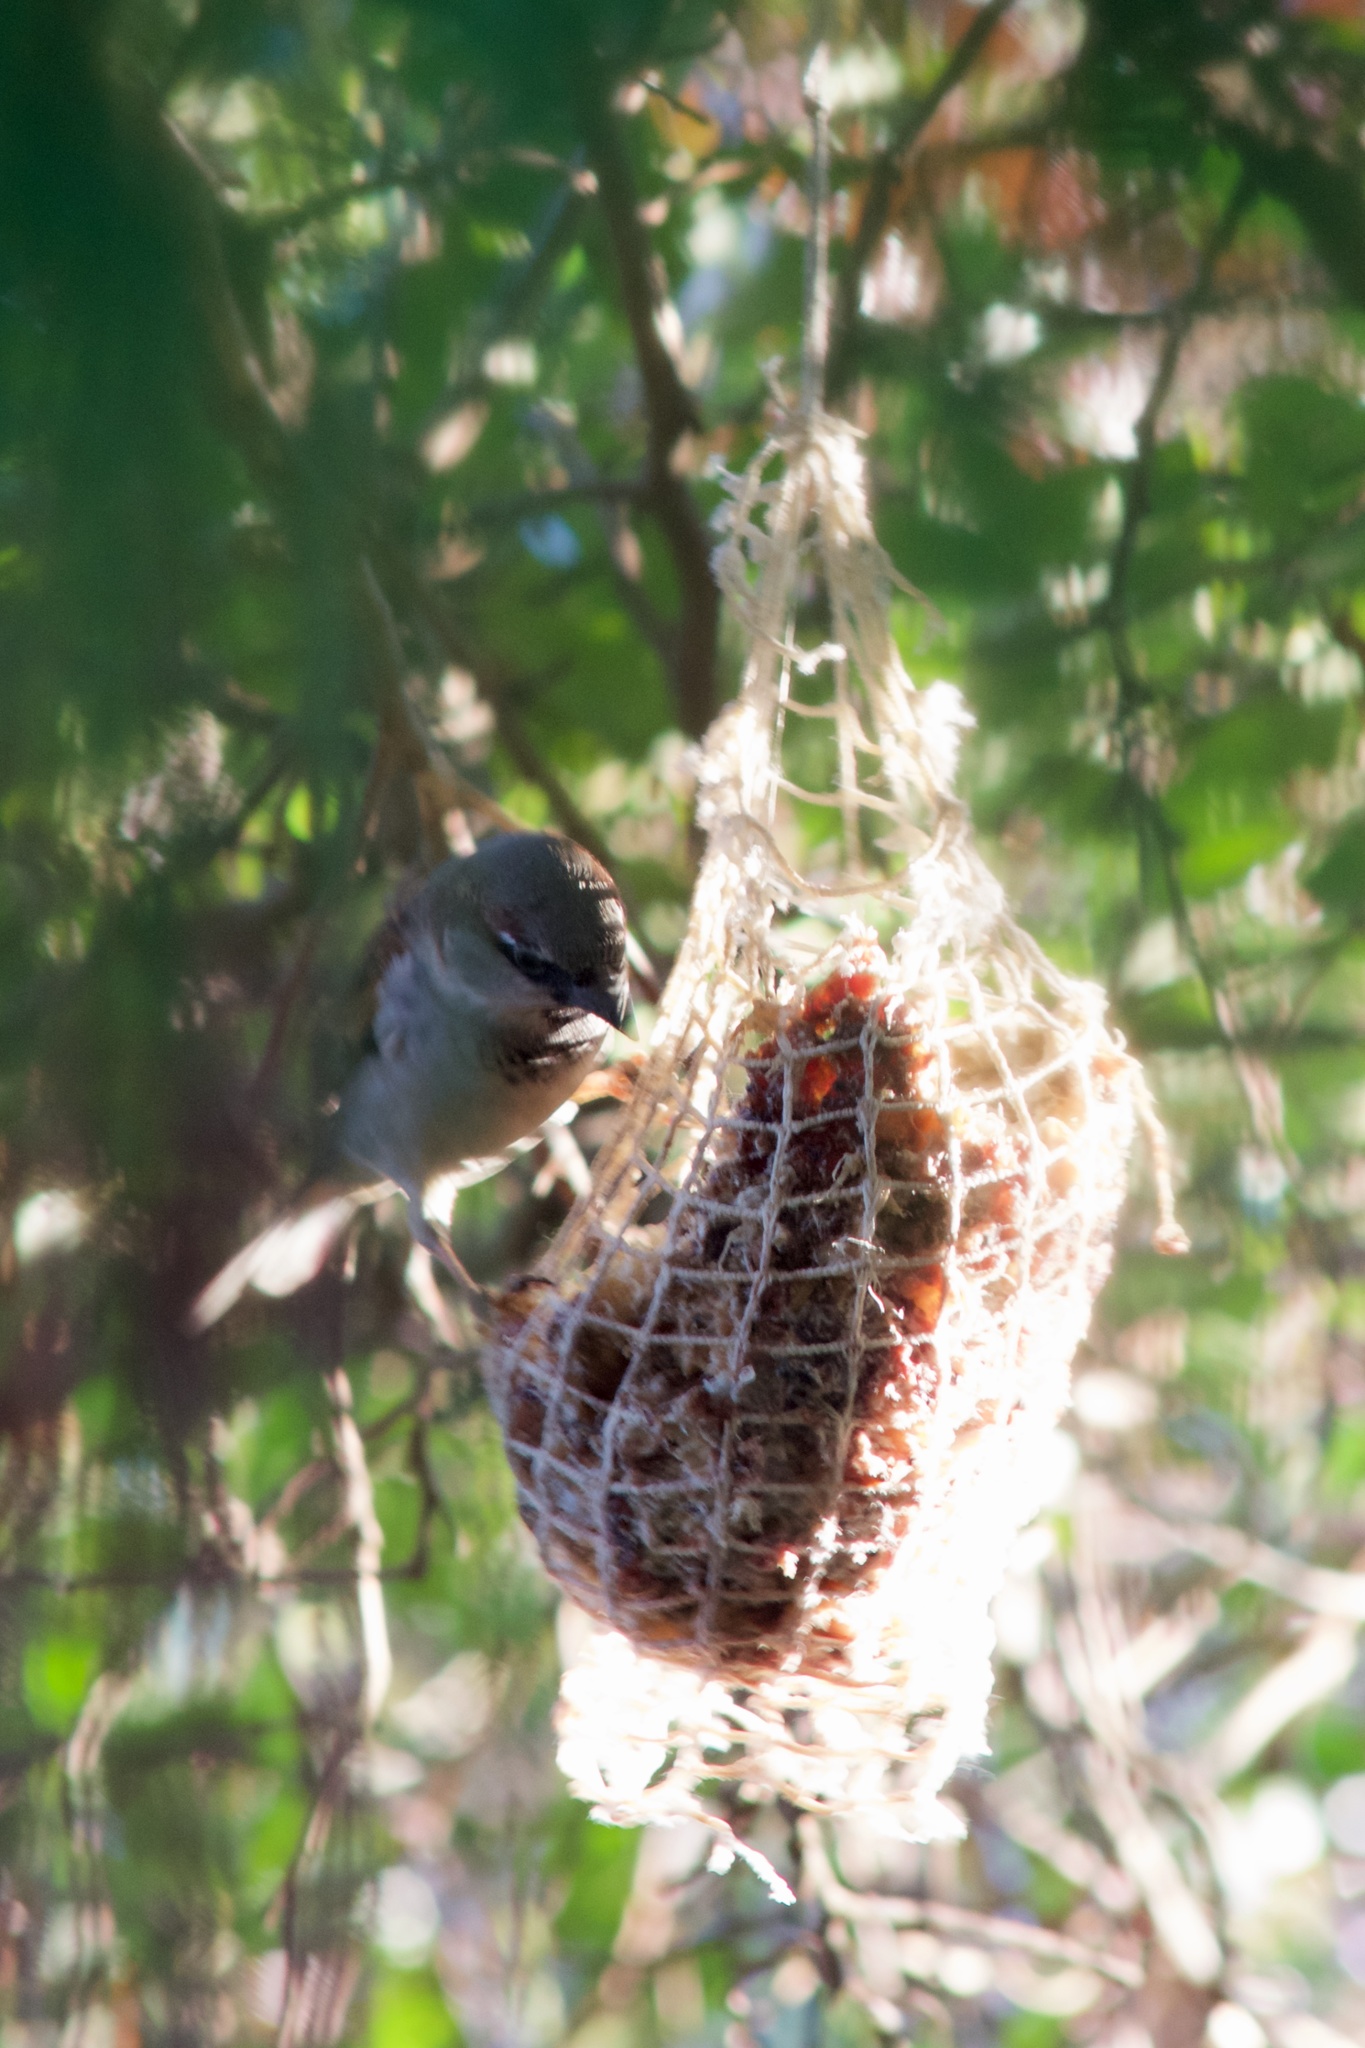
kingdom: Animalia
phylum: Chordata
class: Aves
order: Passeriformes
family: Passeridae
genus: Passer
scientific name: Passer domesticus
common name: House sparrow
